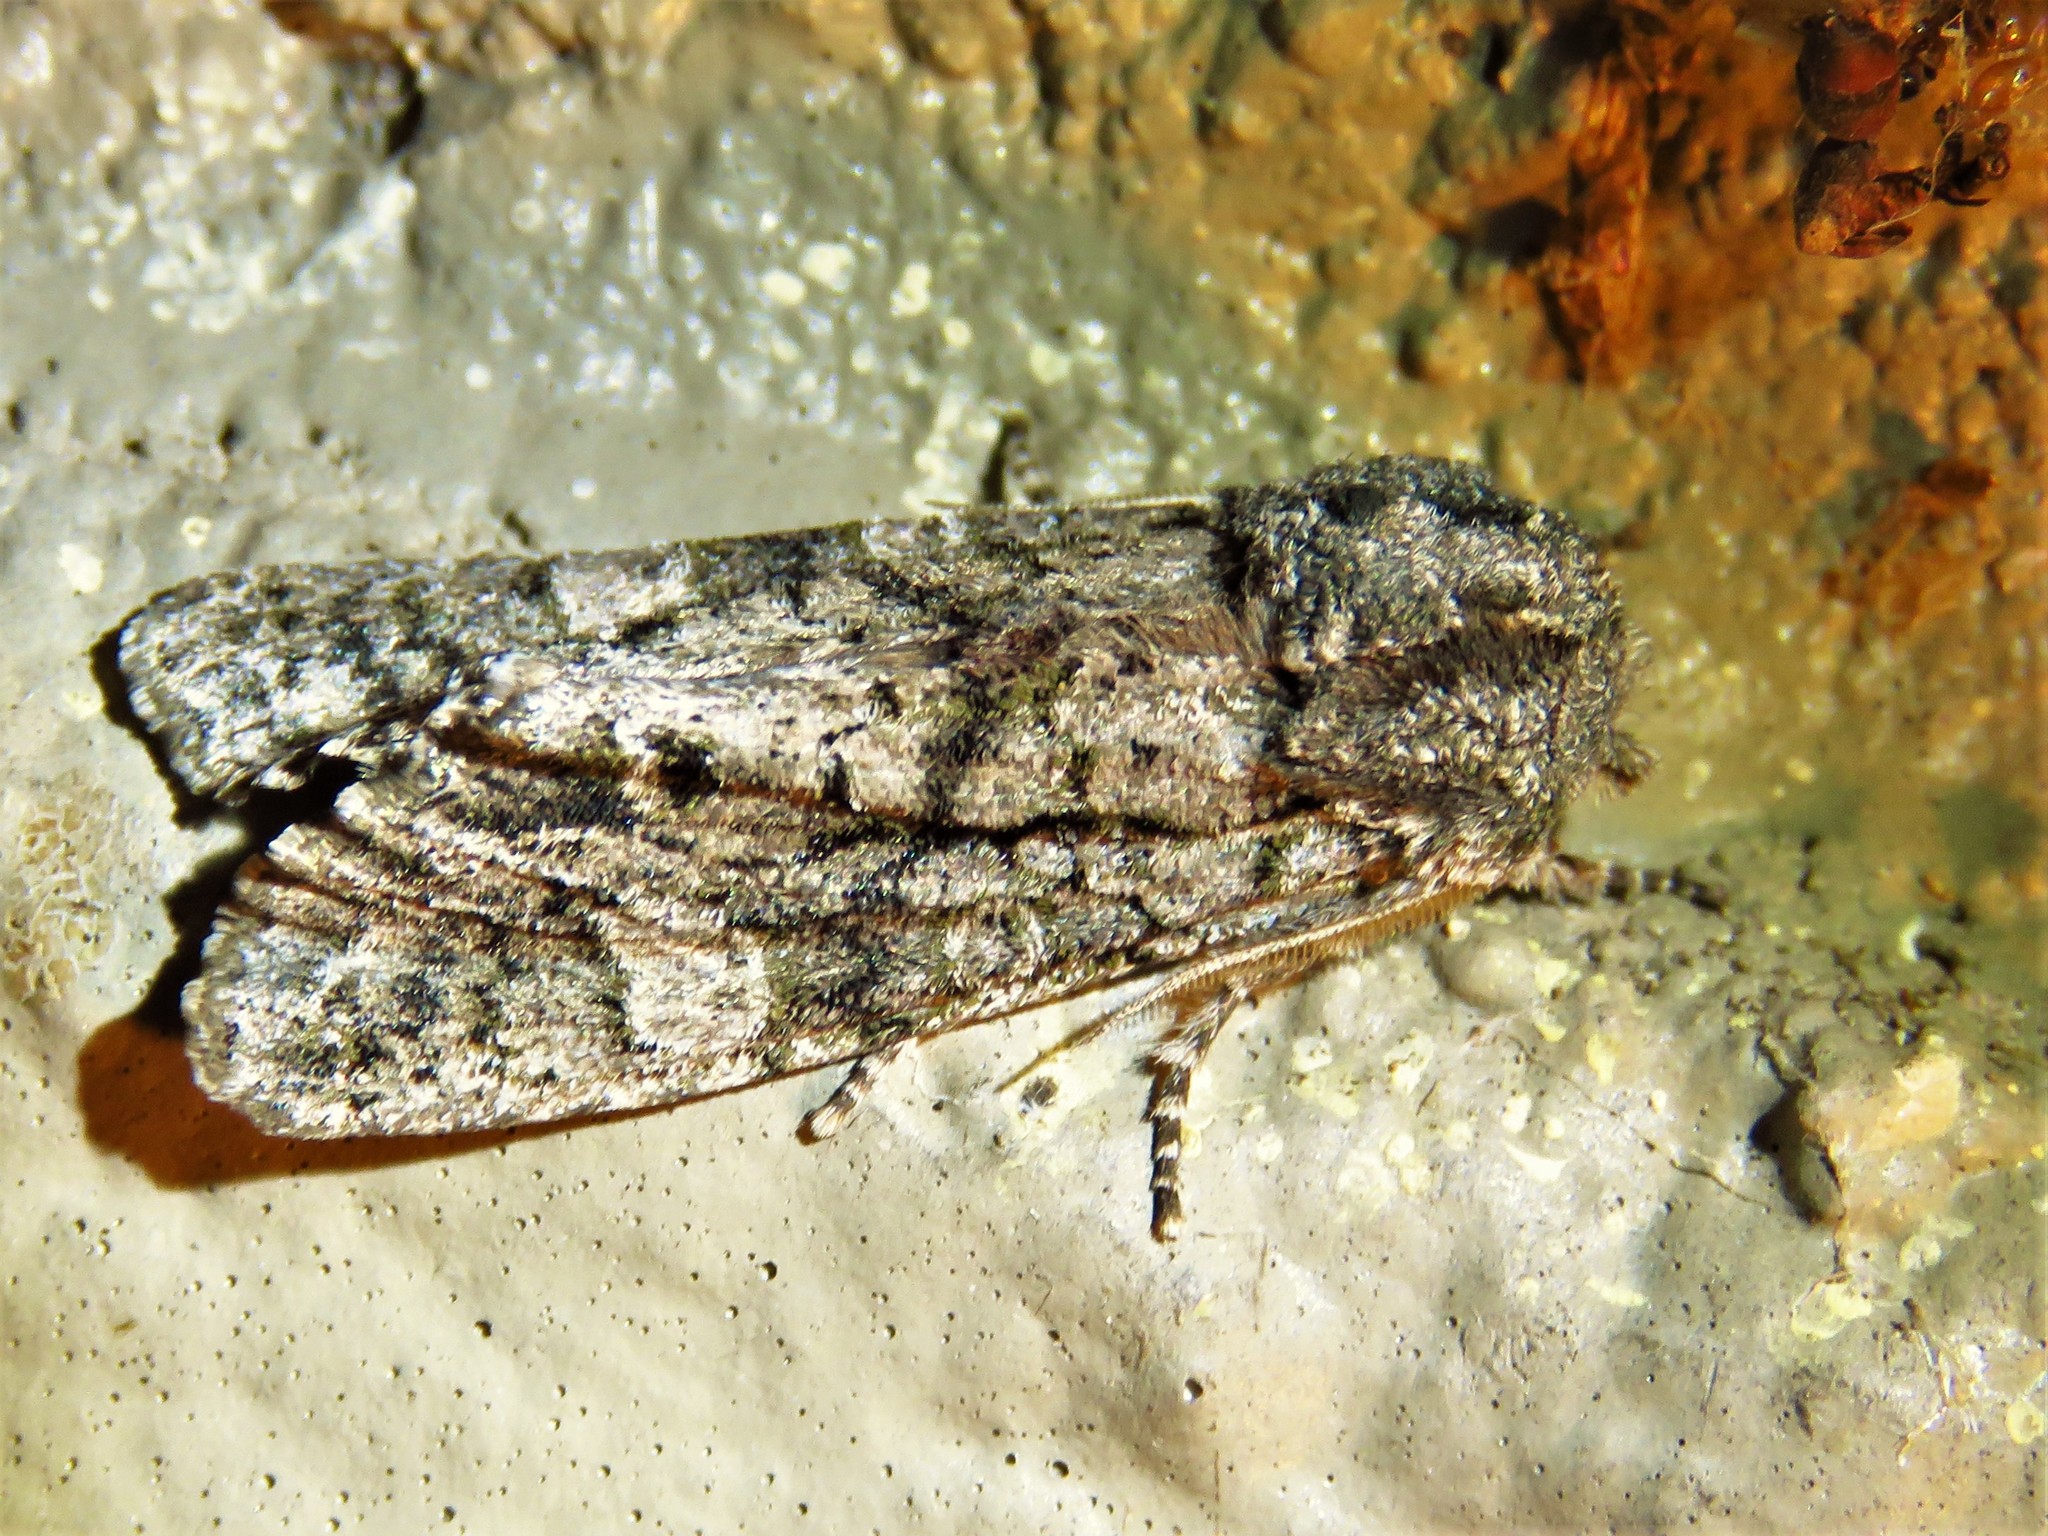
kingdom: Animalia
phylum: Arthropoda
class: Insecta
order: Lepidoptera
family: Noctuidae
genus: Psaphida
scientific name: Psaphida grotei
